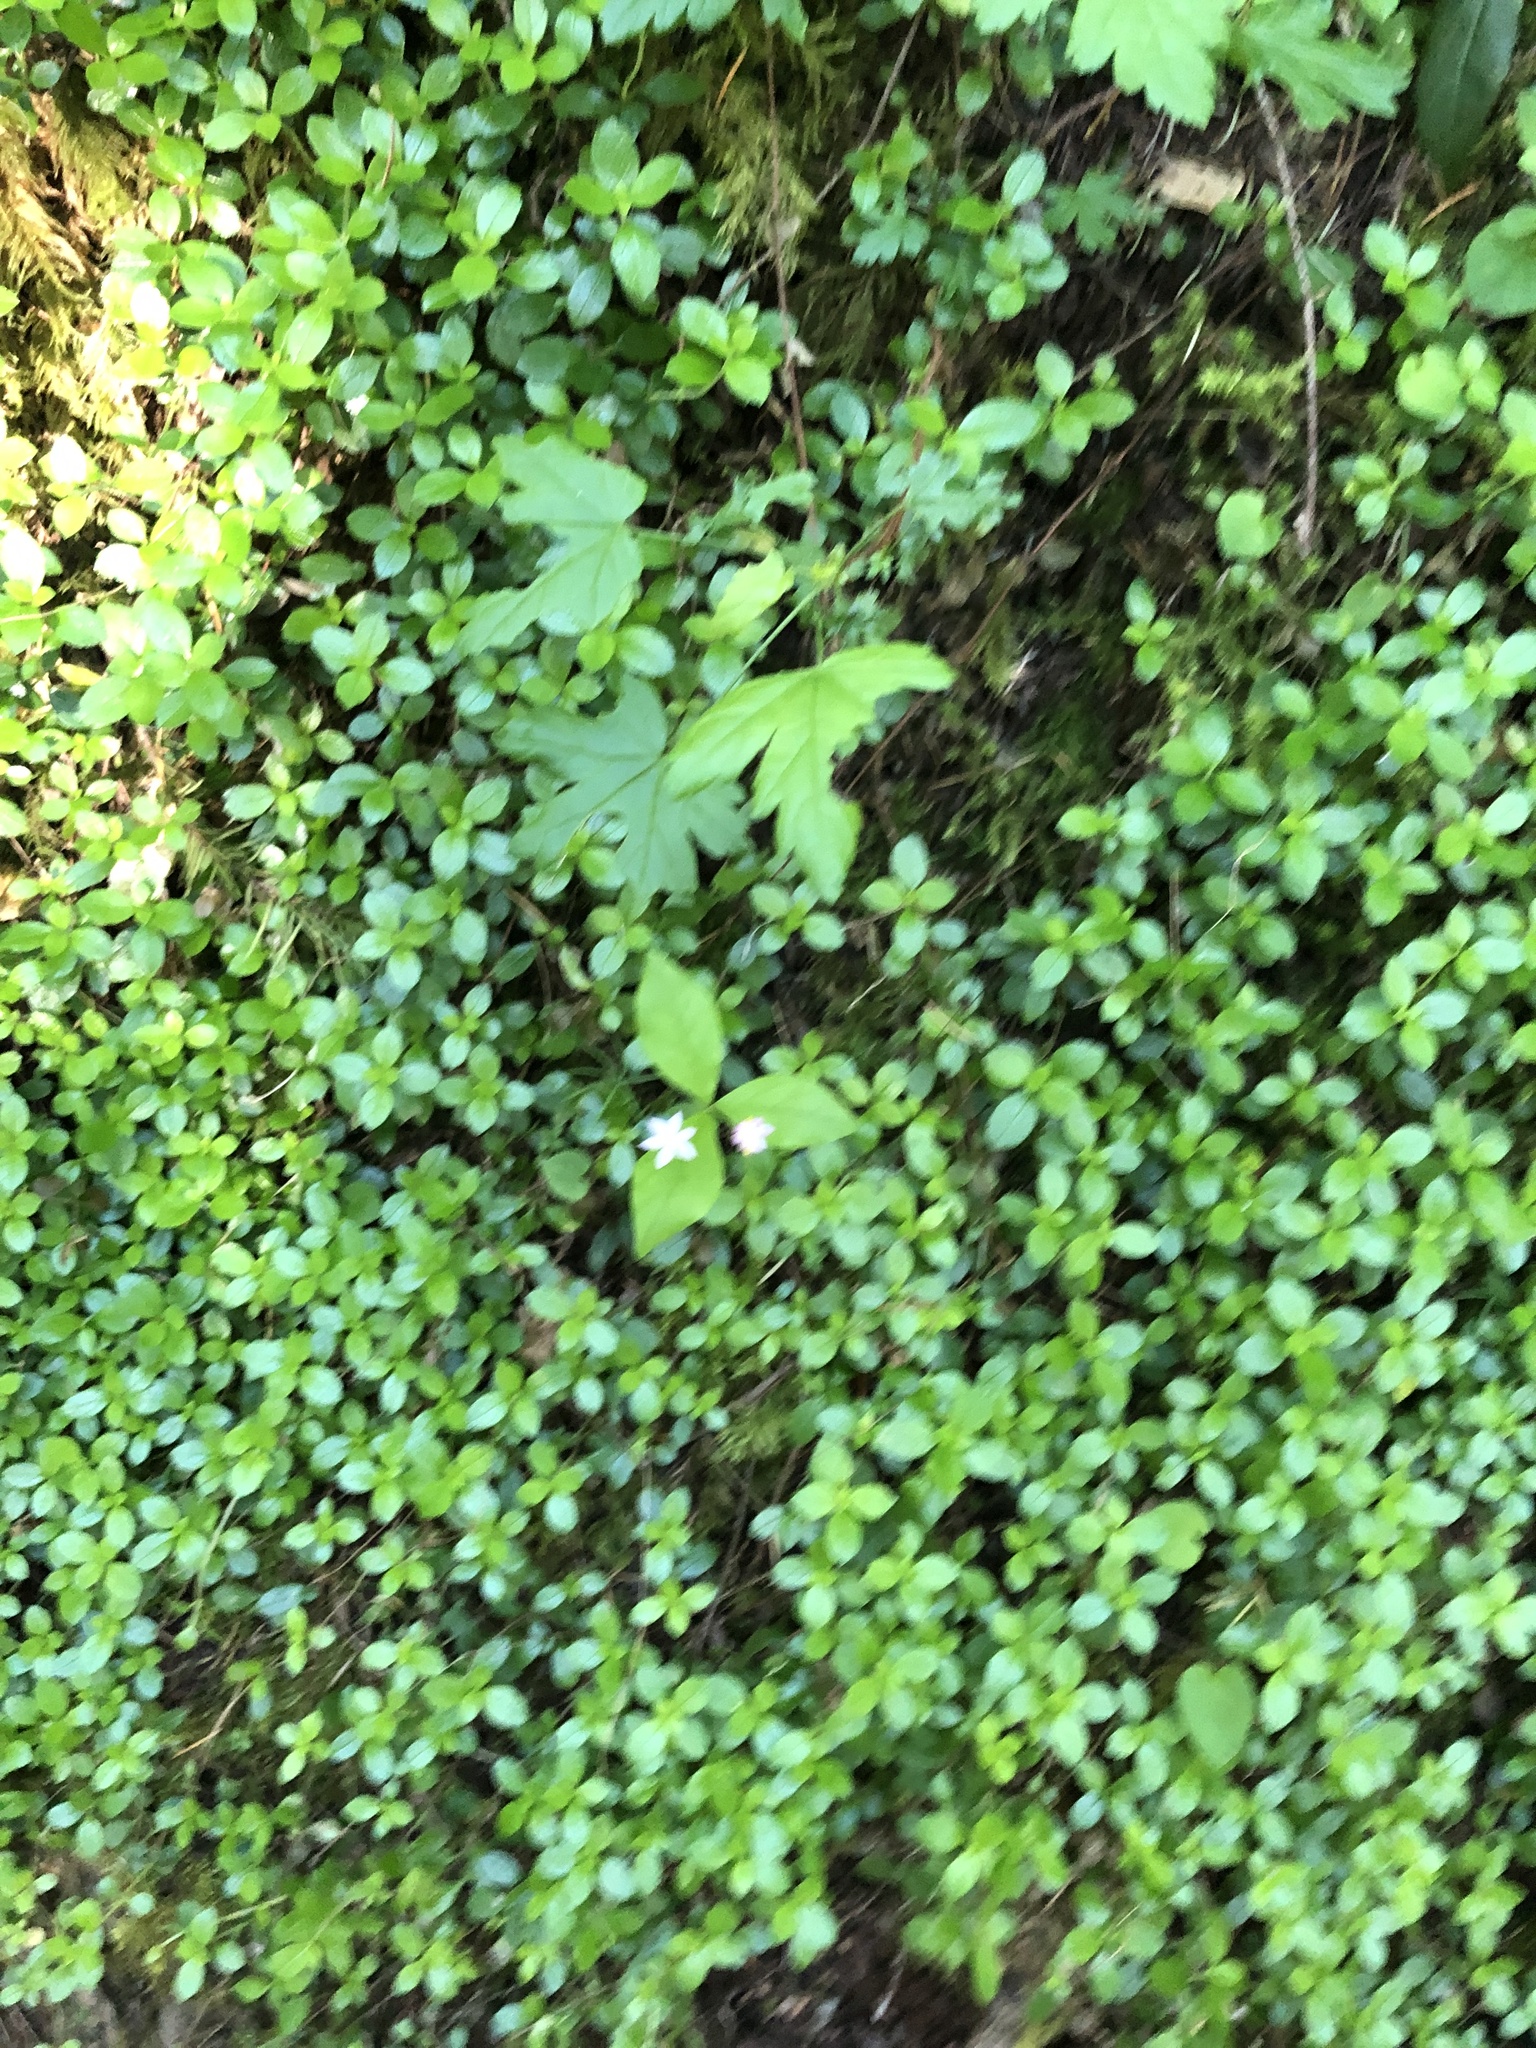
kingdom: Plantae
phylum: Tracheophyta
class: Magnoliopsida
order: Ericales
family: Primulaceae
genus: Lysimachia
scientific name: Lysimachia latifolia
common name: Pacific starflower
